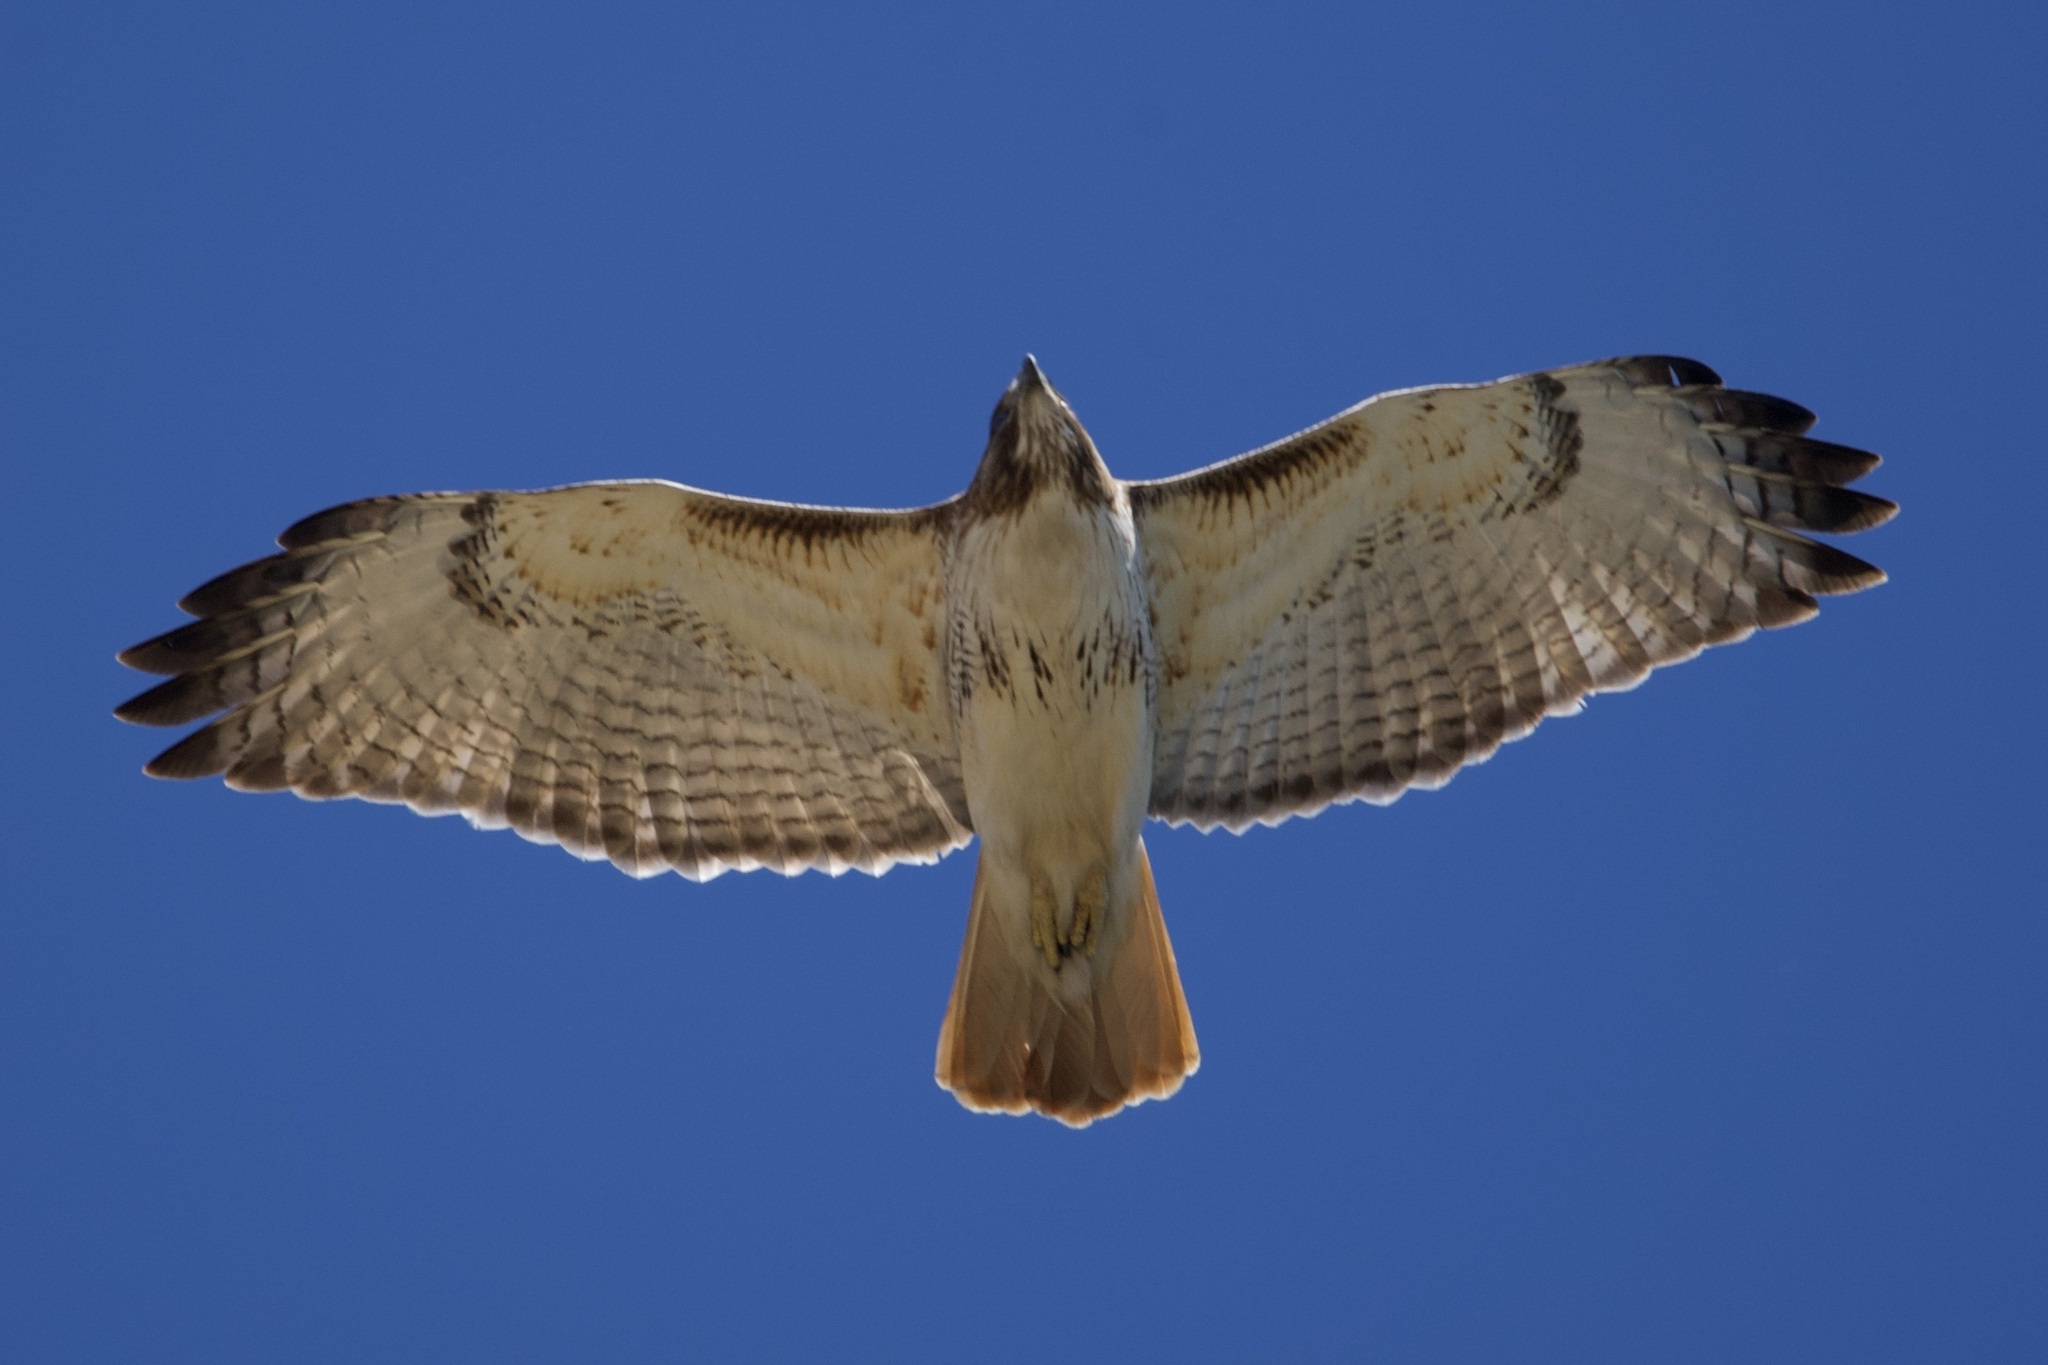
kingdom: Animalia
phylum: Chordata
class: Aves
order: Accipitriformes
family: Accipitridae
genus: Buteo
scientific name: Buteo jamaicensis
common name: Red-tailed hawk
